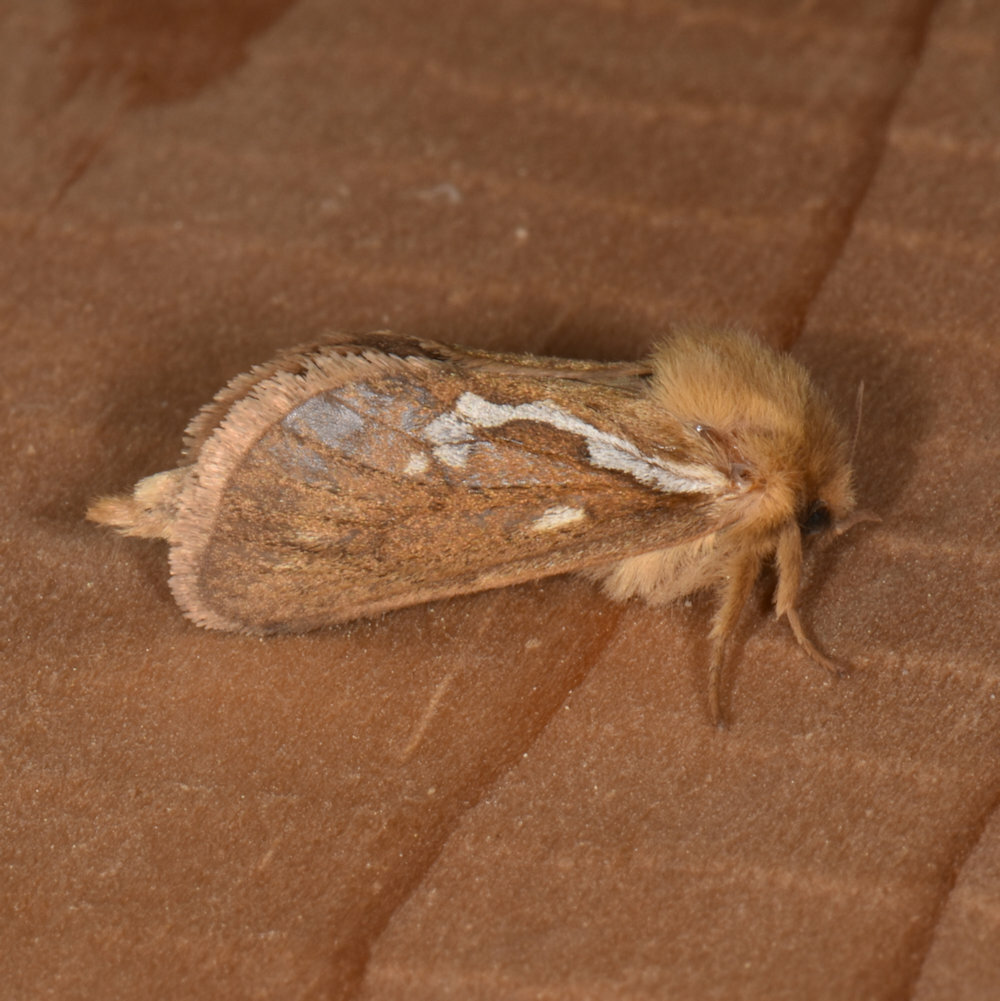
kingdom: Animalia
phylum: Arthropoda
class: Insecta
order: Lepidoptera
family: Hepialidae
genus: Korscheltellus
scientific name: Korscheltellus lupulina
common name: Common swift
